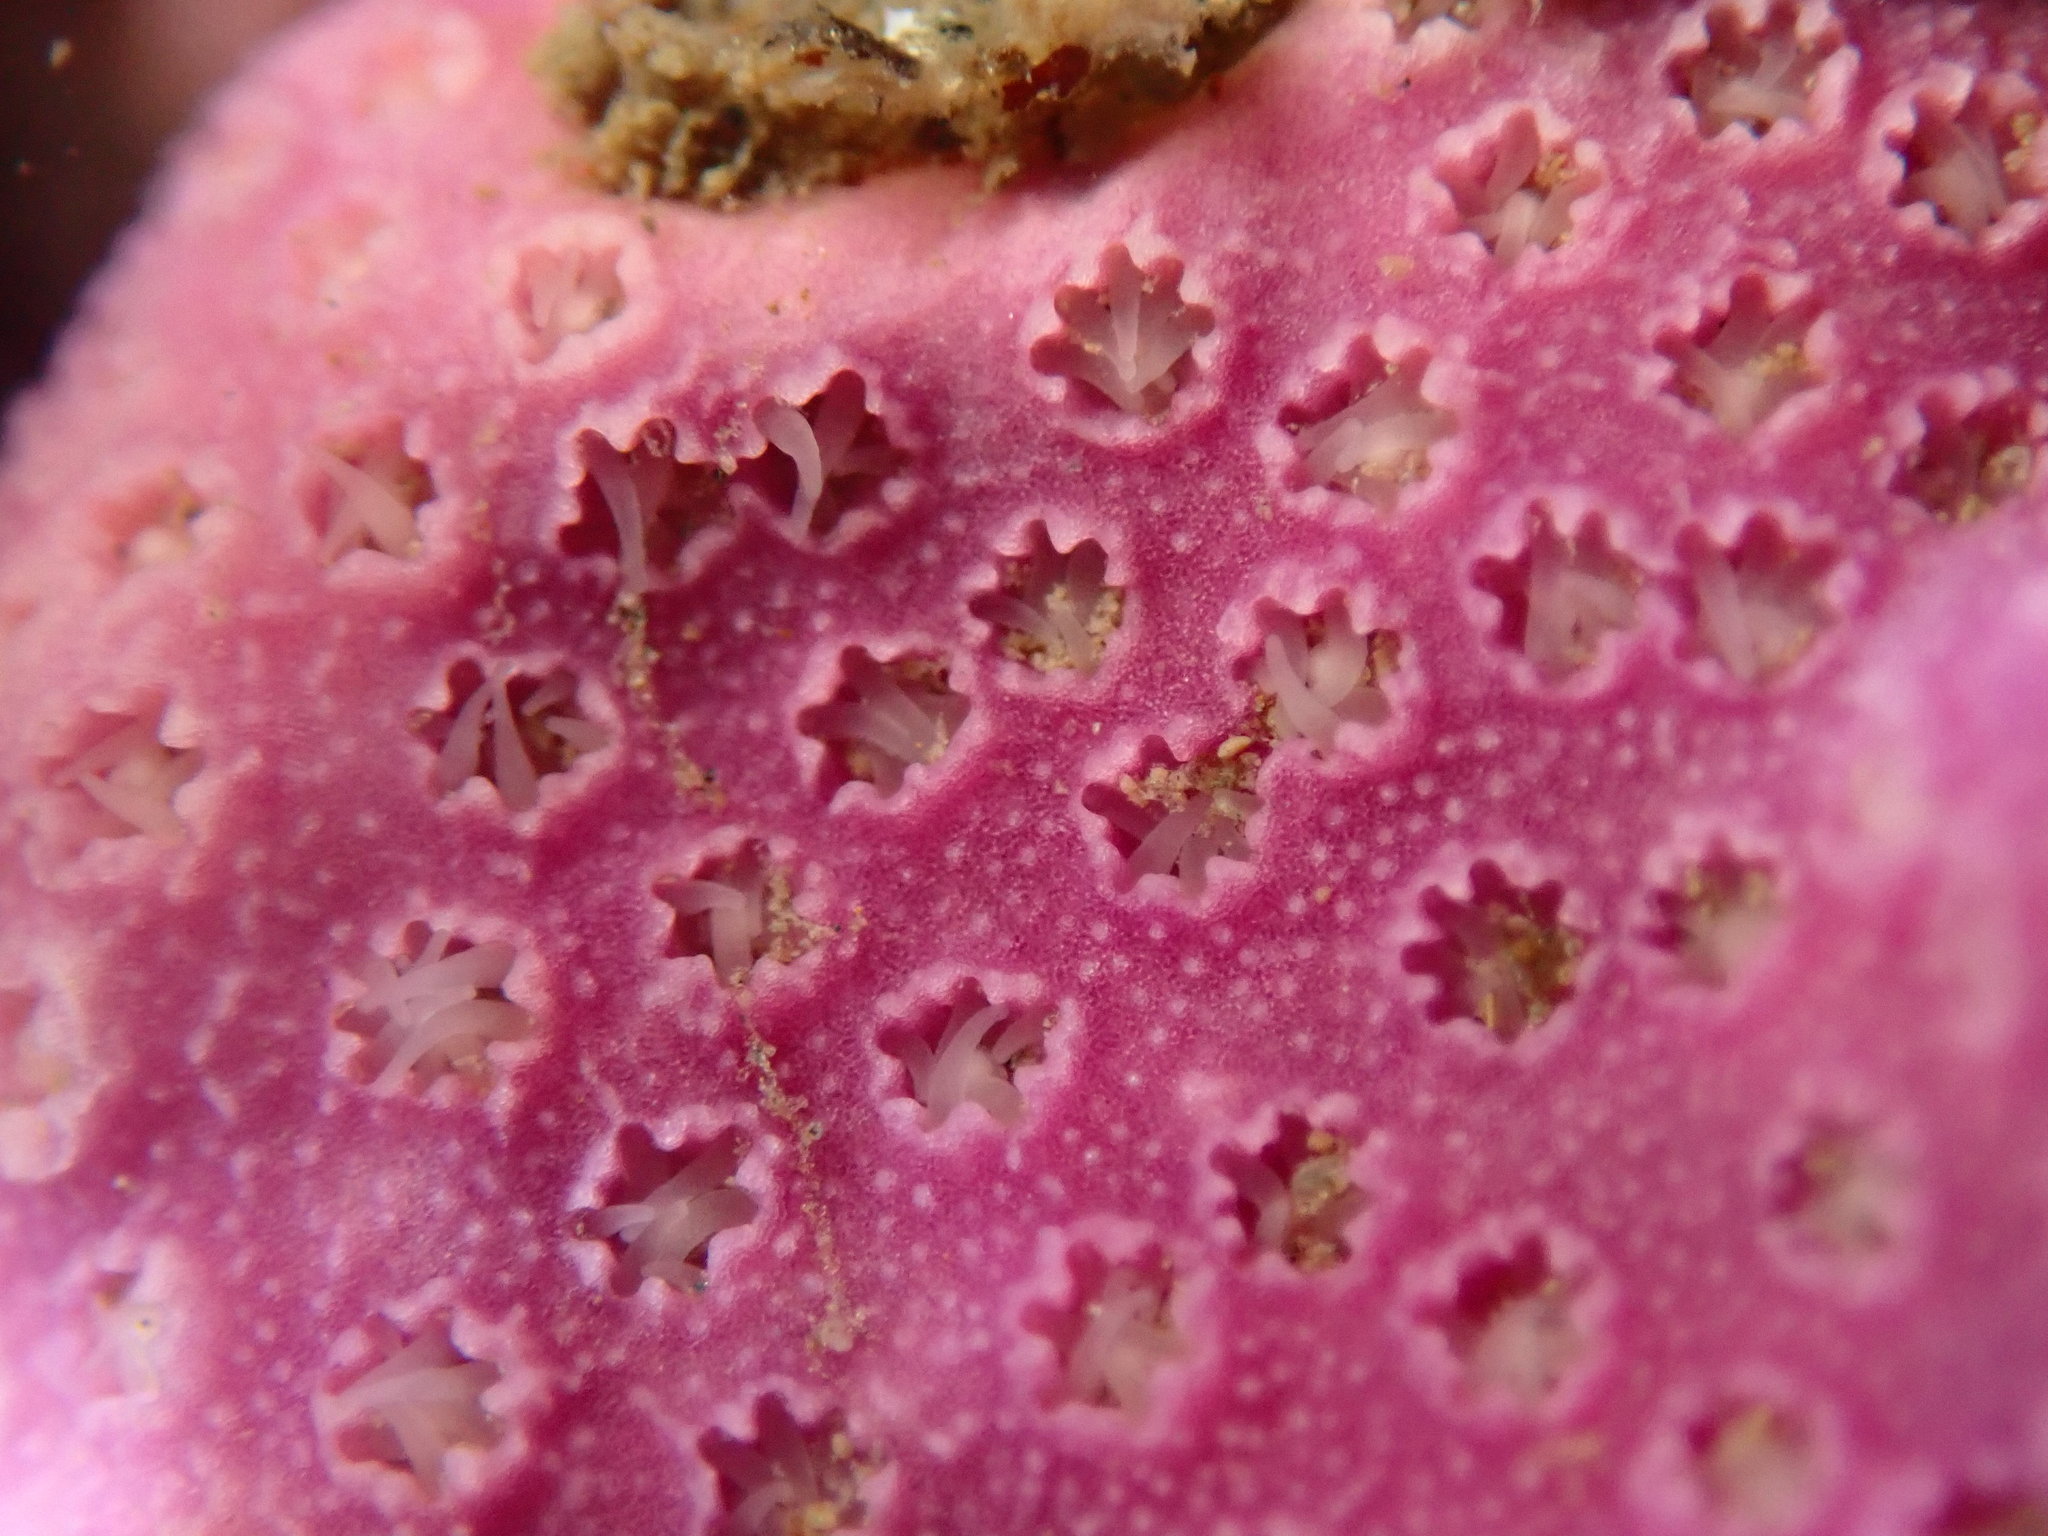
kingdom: Animalia
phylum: Cnidaria
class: Hydrozoa
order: Anthoathecata
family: Stylasteridae
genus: Stylantheca
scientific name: Stylantheca papillosa
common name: Corrugated lace hydrocoral
